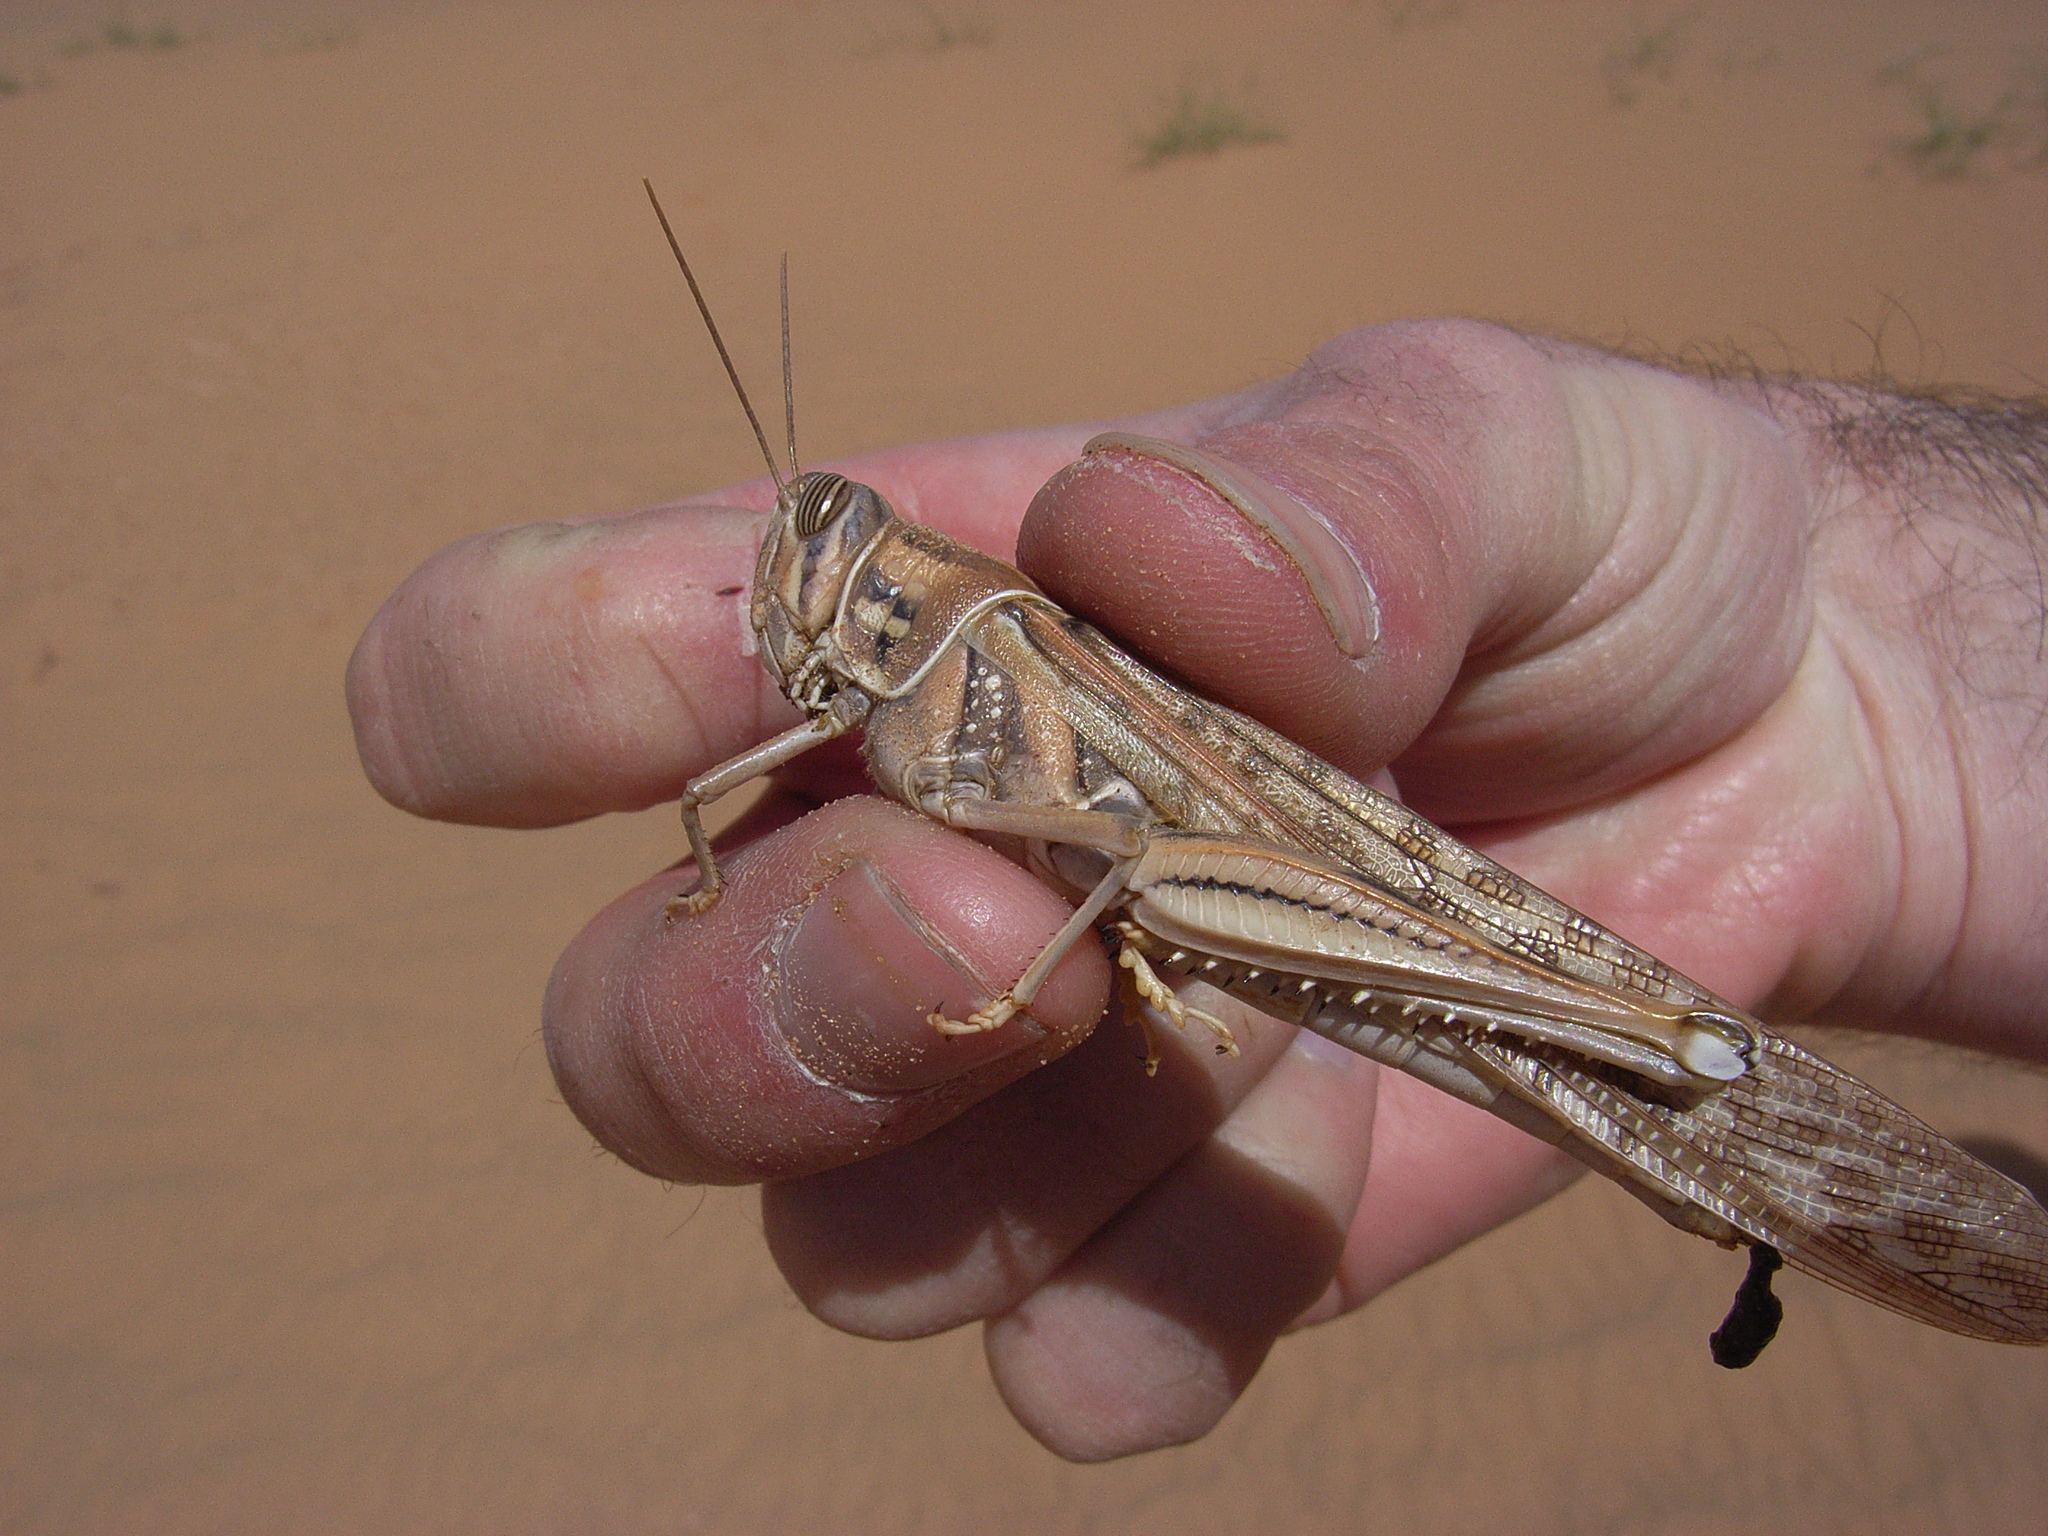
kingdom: Animalia
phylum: Arthropoda
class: Insecta
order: Orthoptera
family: Acrididae
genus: Schistocerca
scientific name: Schistocerca gregaria
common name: Desert locust
